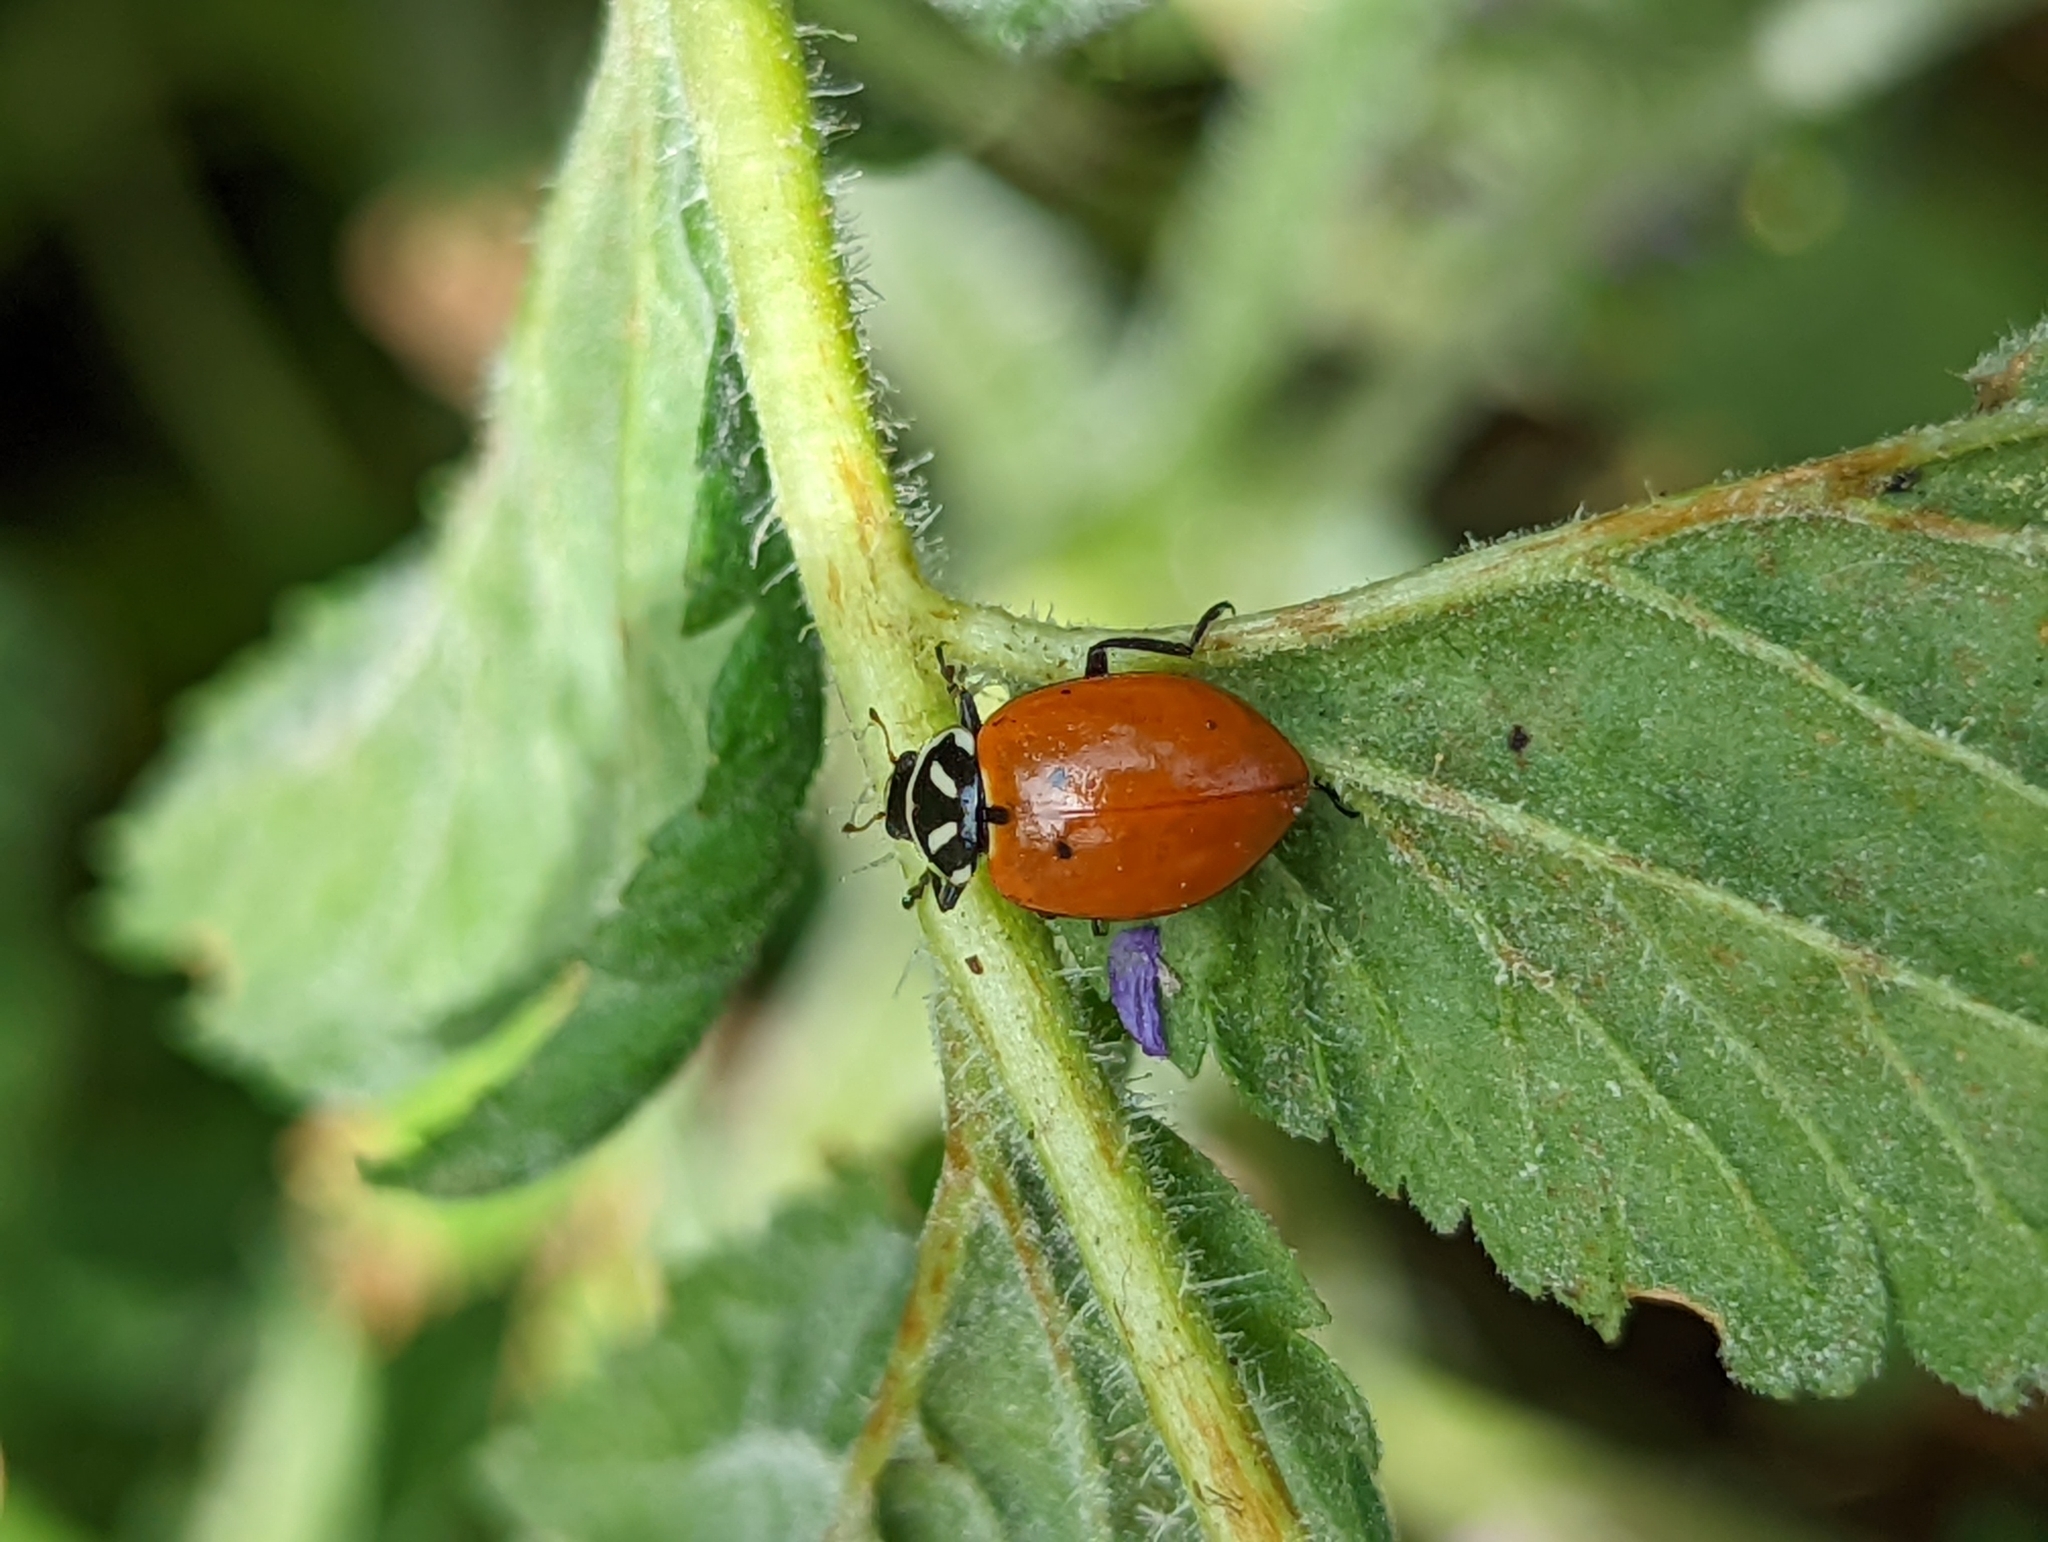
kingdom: Animalia
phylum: Arthropoda
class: Insecta
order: Coleoptera
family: Coccinellidae
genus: Hippodamia
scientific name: Hippodamia convergens
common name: Convergent lady beetle
